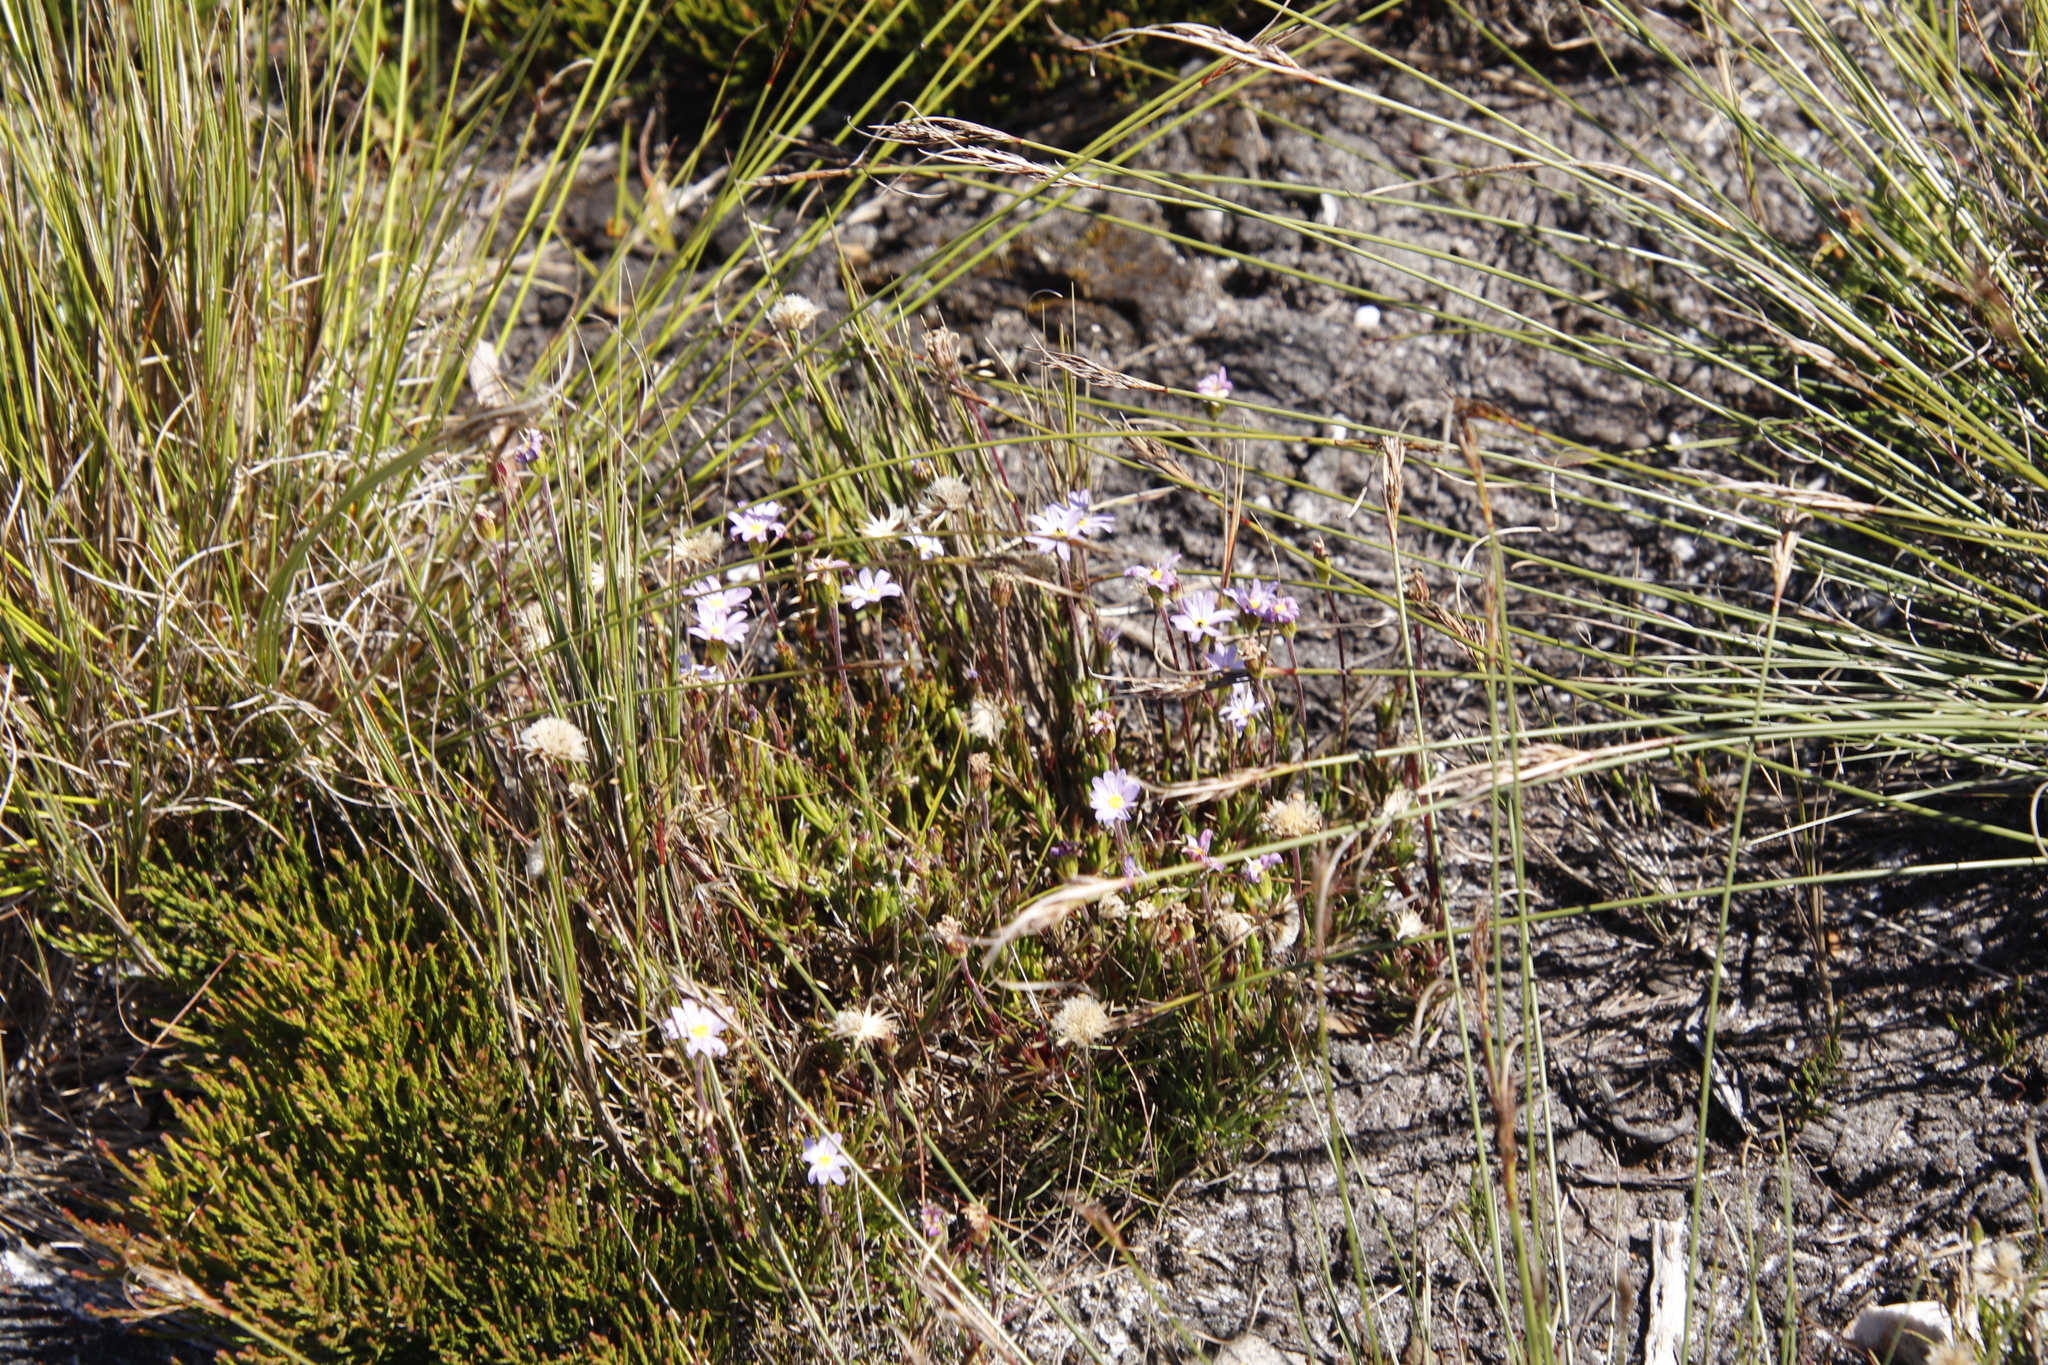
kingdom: Plantae
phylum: Tracheophyta
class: Magnoliopsida
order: Asterales
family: Asteraceae
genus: Zyrphelis
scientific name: Zyrphelis taxifolia
